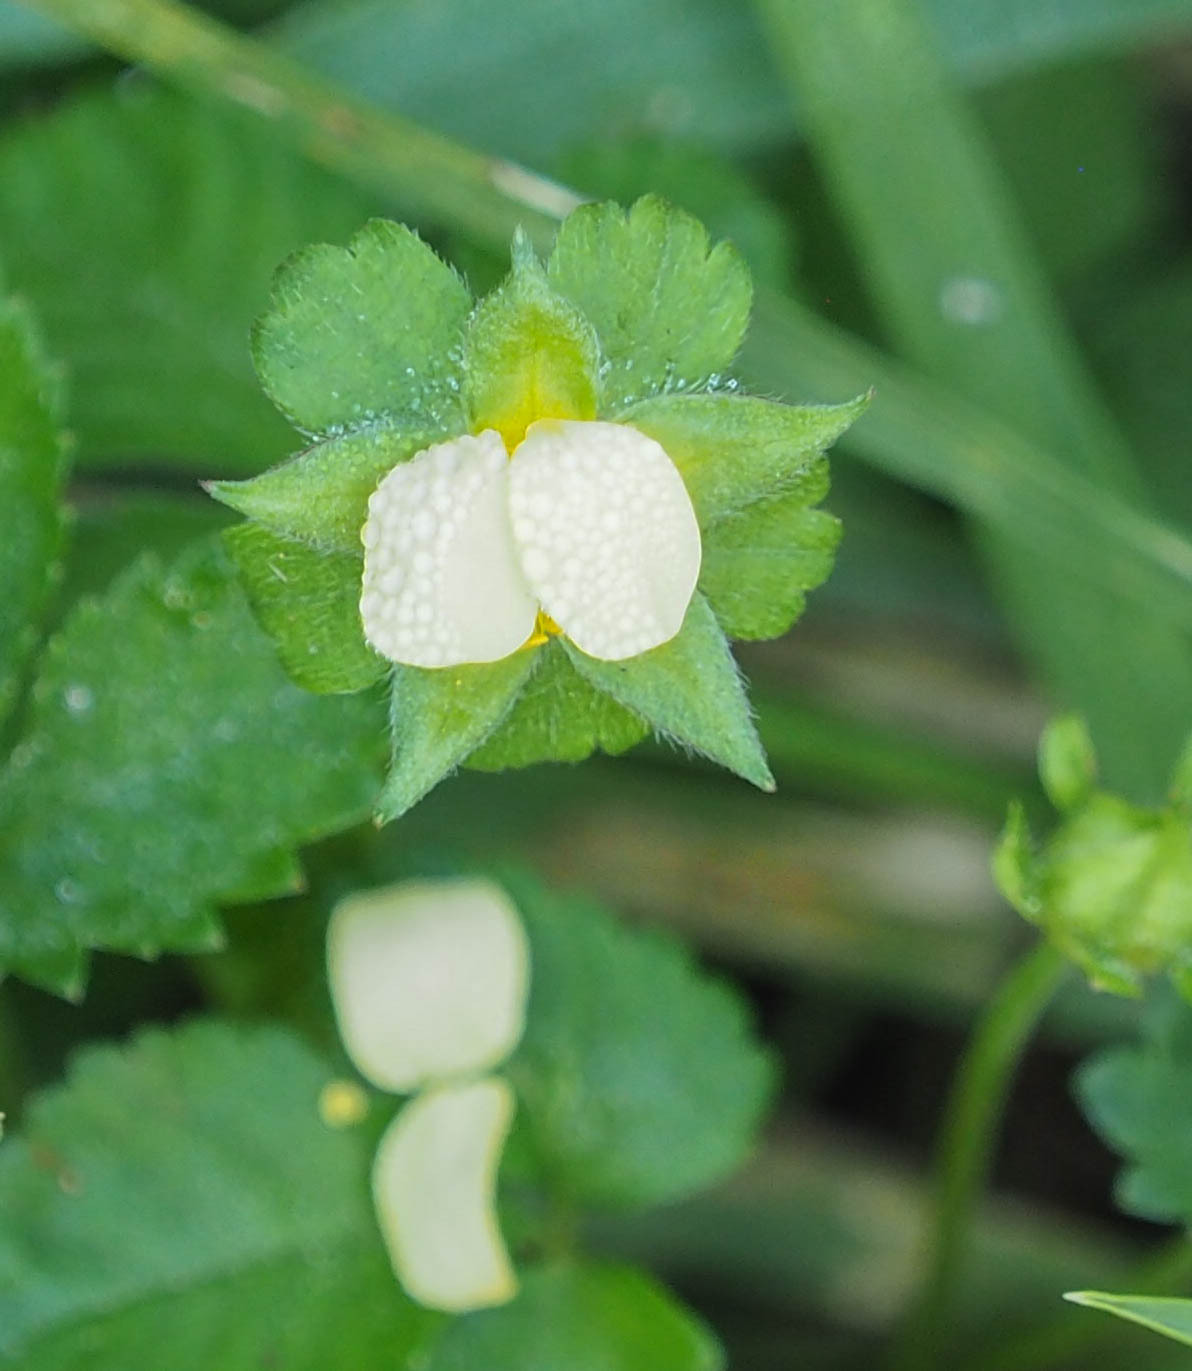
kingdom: Plantae
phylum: Tracheophyta
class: Magnoliopsida
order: Rosales
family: Rosaceae
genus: Potentilla
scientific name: Potentilla indica
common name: Yellow-flowered strawberry
